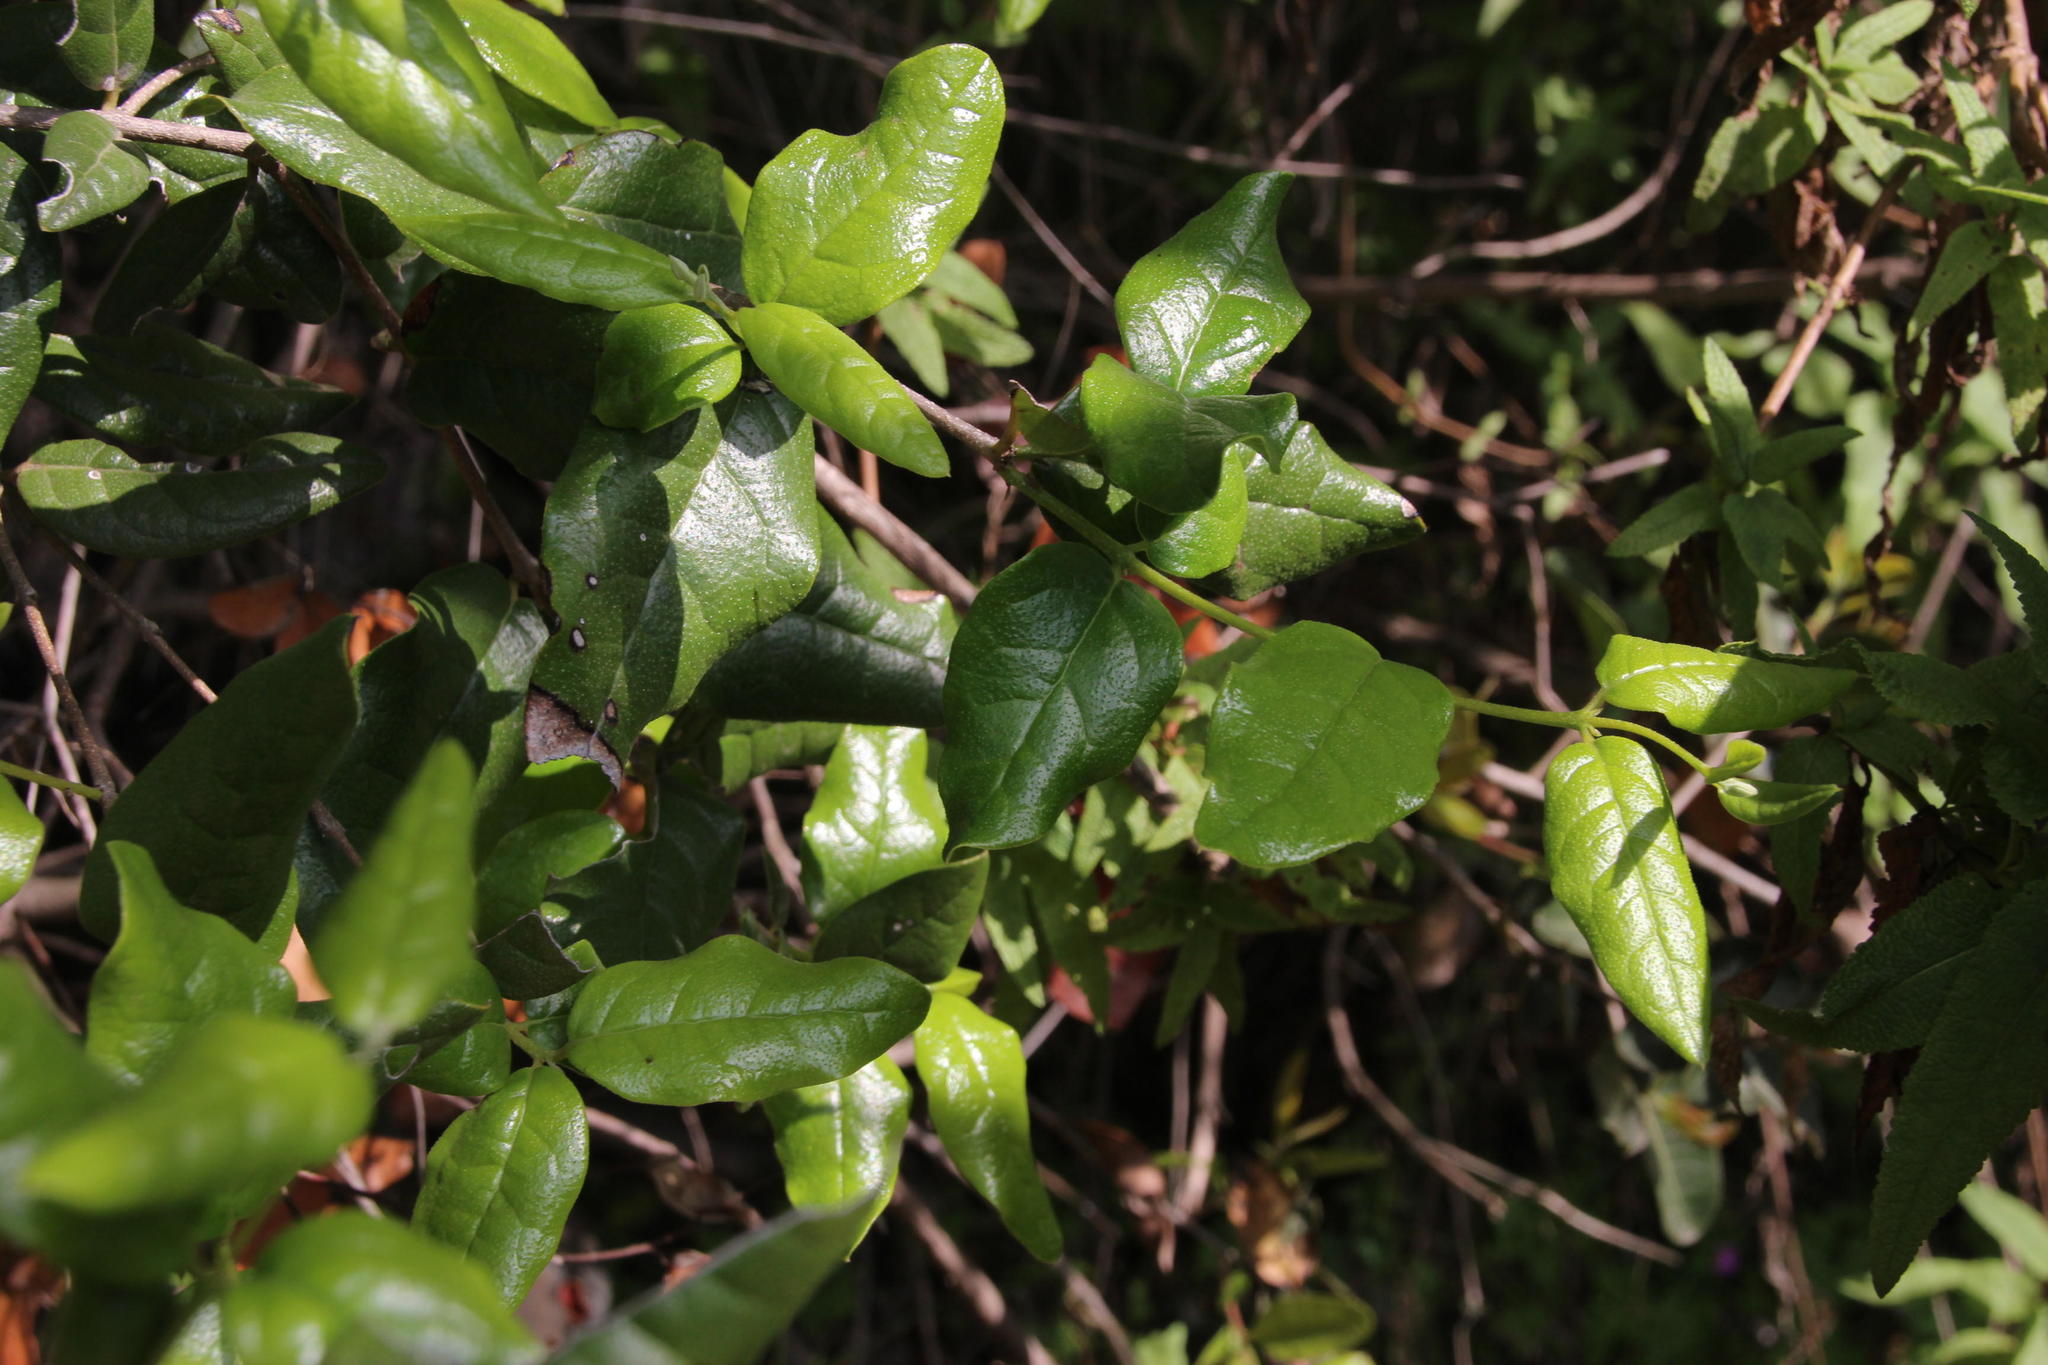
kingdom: Plantae
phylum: Tracheophyta
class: Magnoliopsida
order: Laurales
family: Monimiaceae
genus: Peumus
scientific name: Peumus boldus
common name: Boldo
